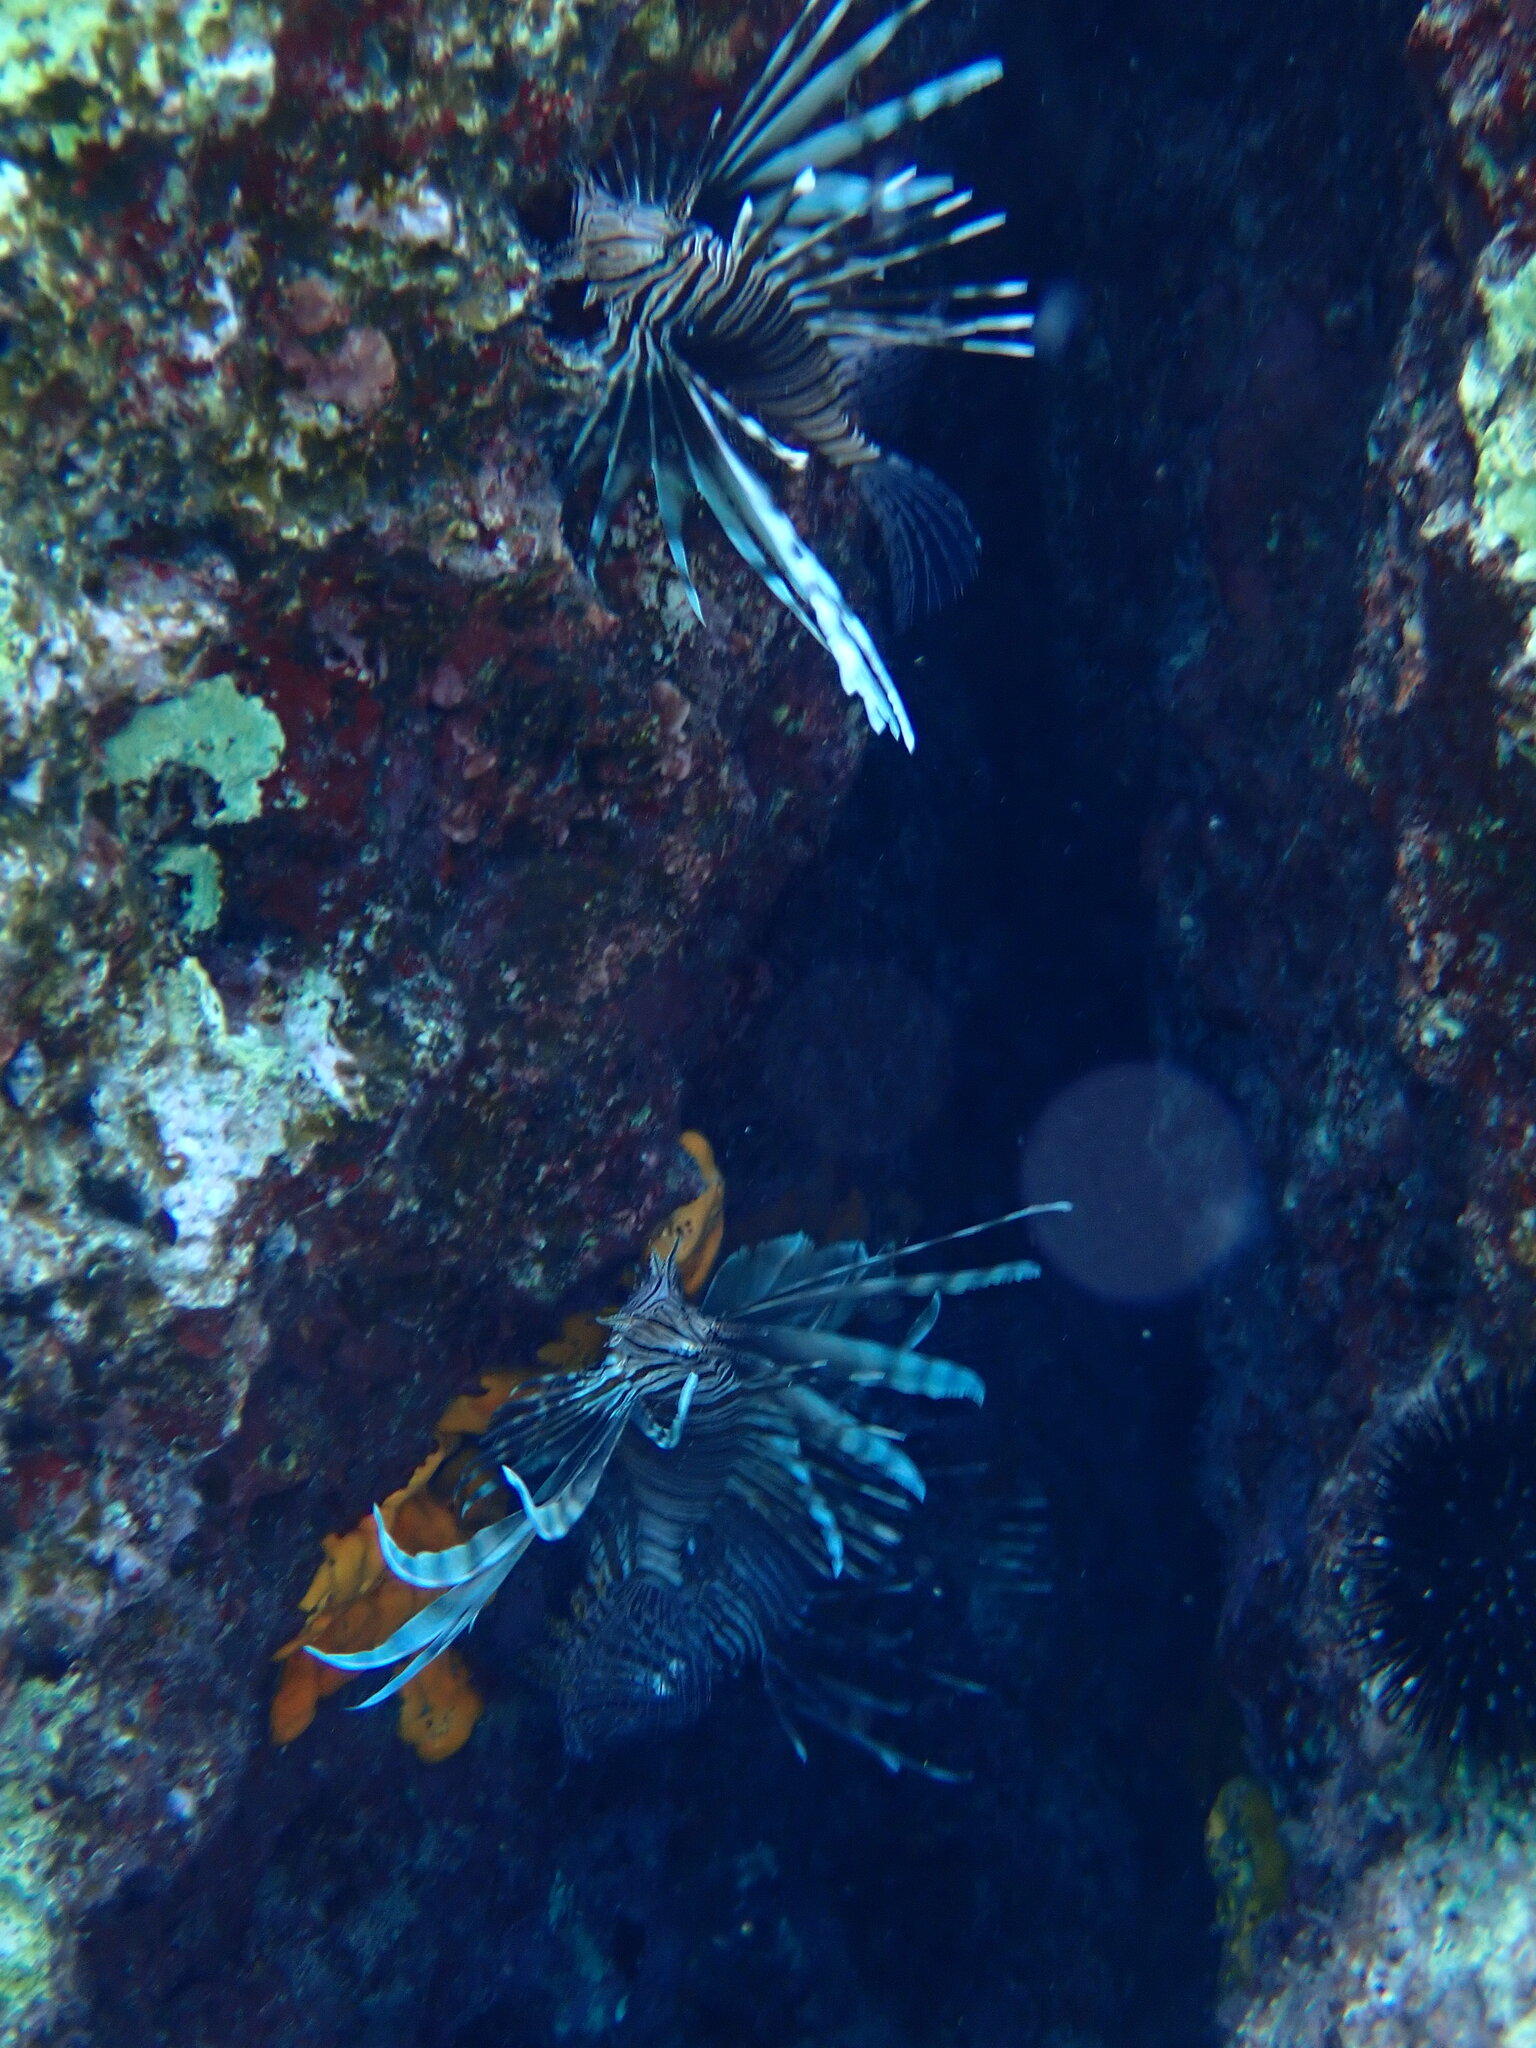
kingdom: Animalia
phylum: Chordata
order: Scorpaeniformes
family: Scorpaenidae
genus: Pterois
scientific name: Pterois miles
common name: Devil firefish
